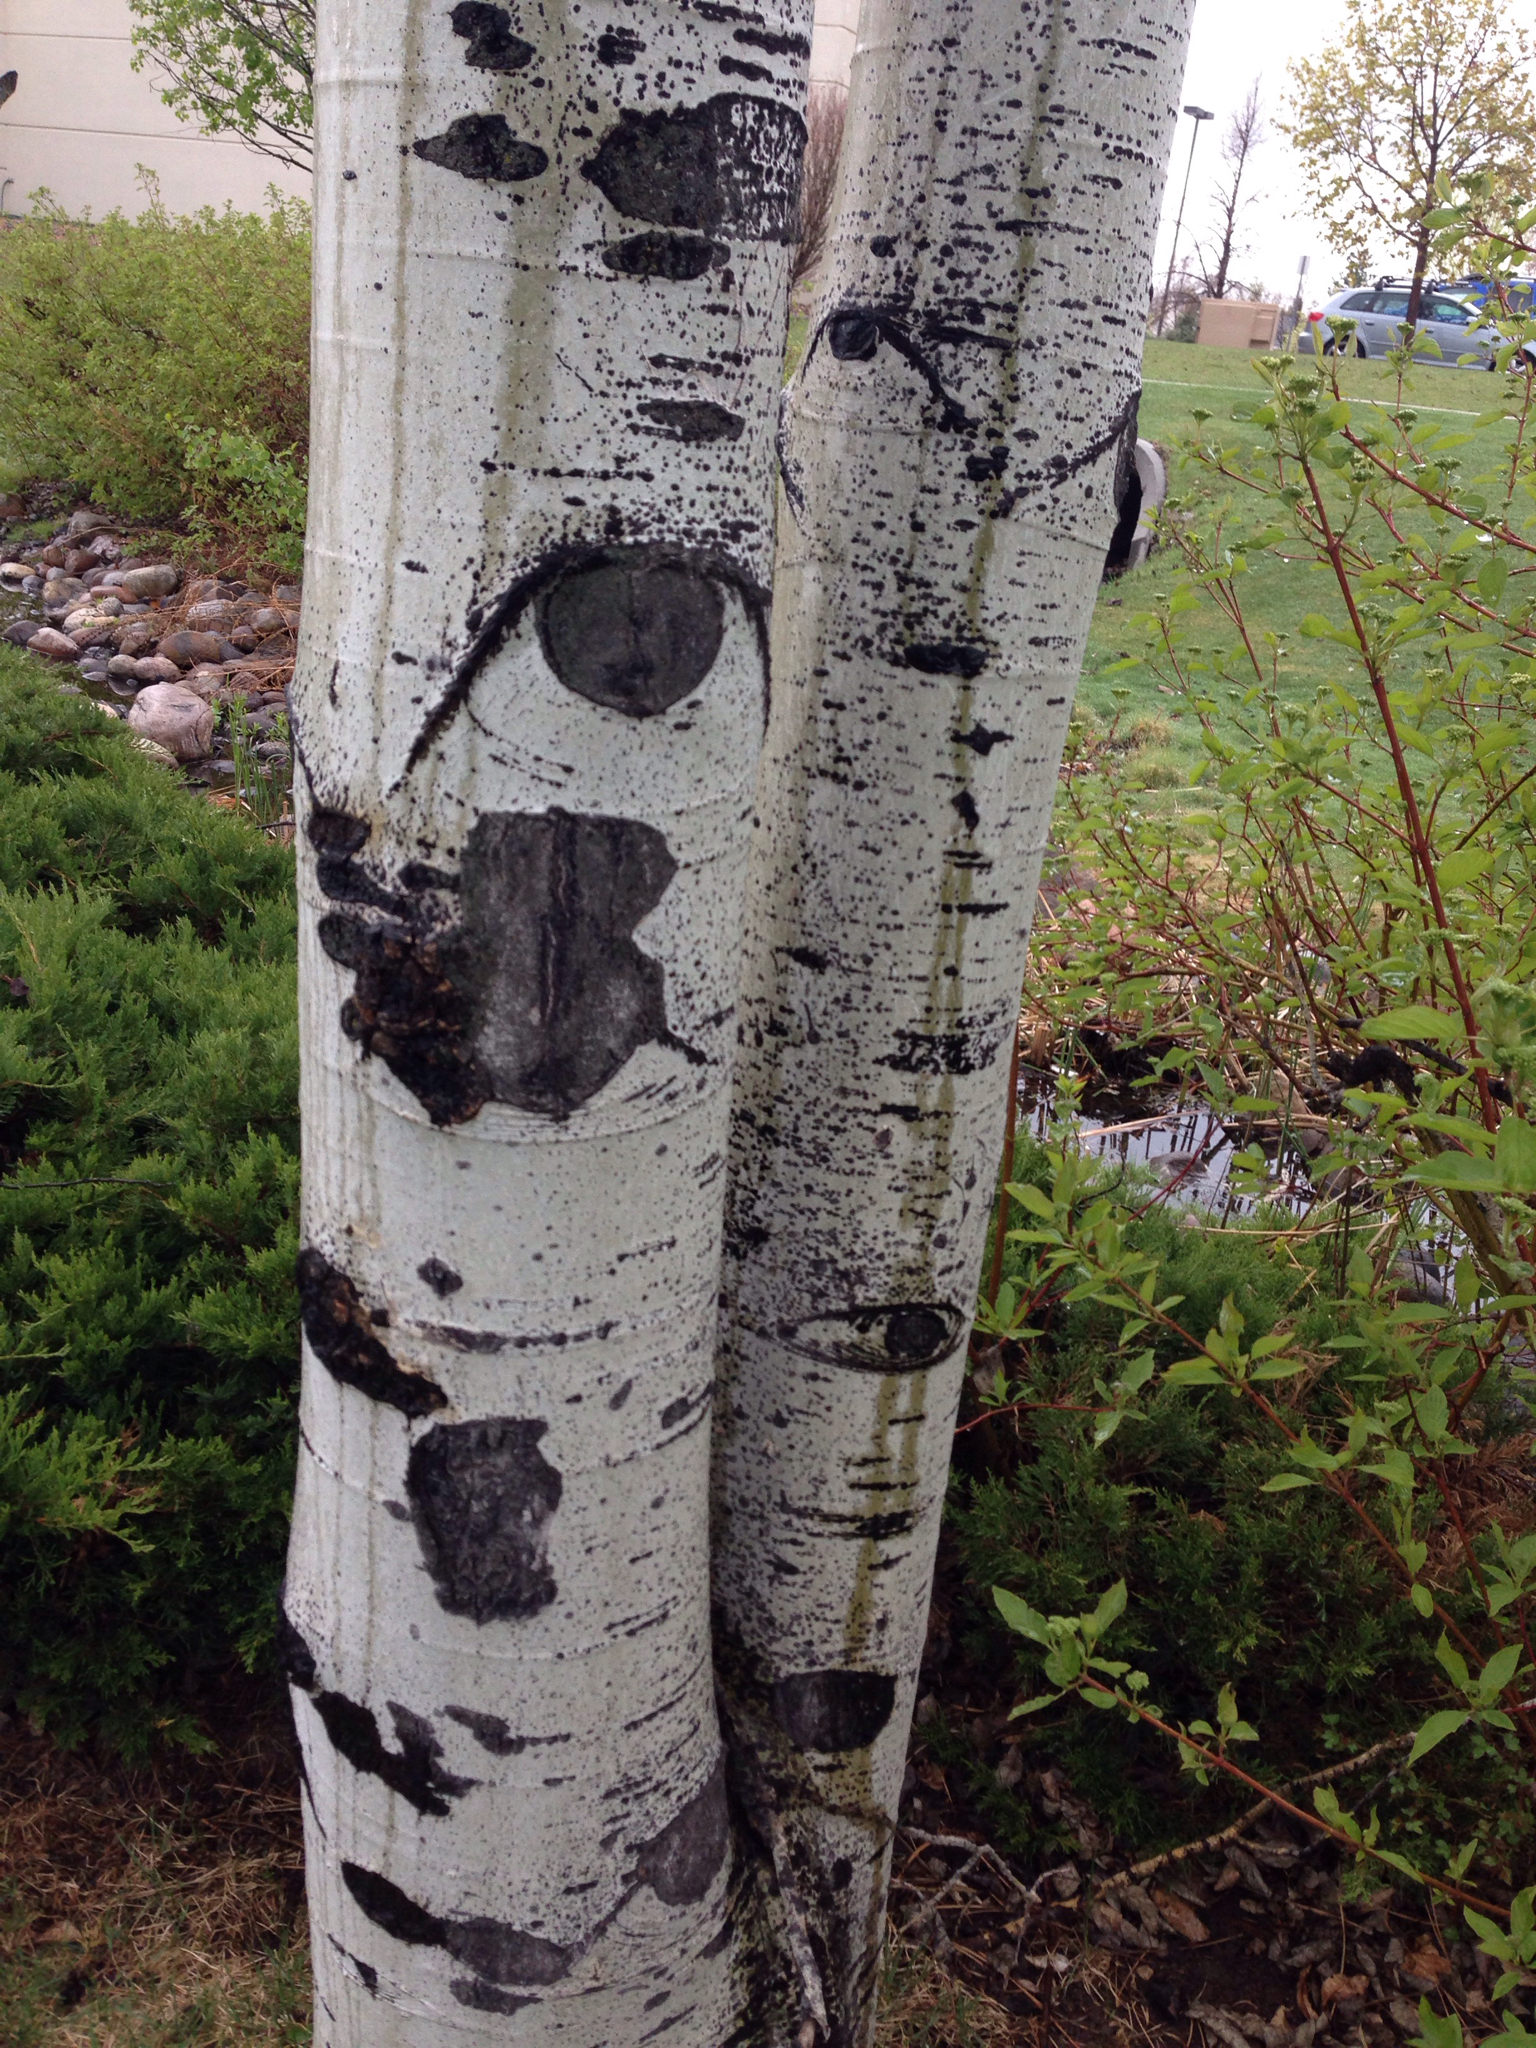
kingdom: Plantae
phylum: Tracheophyta
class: Magnoliopsida
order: Malpighiales
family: Salicaceae
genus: Populus
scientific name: Populus tremuloides
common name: Quaking aspen
